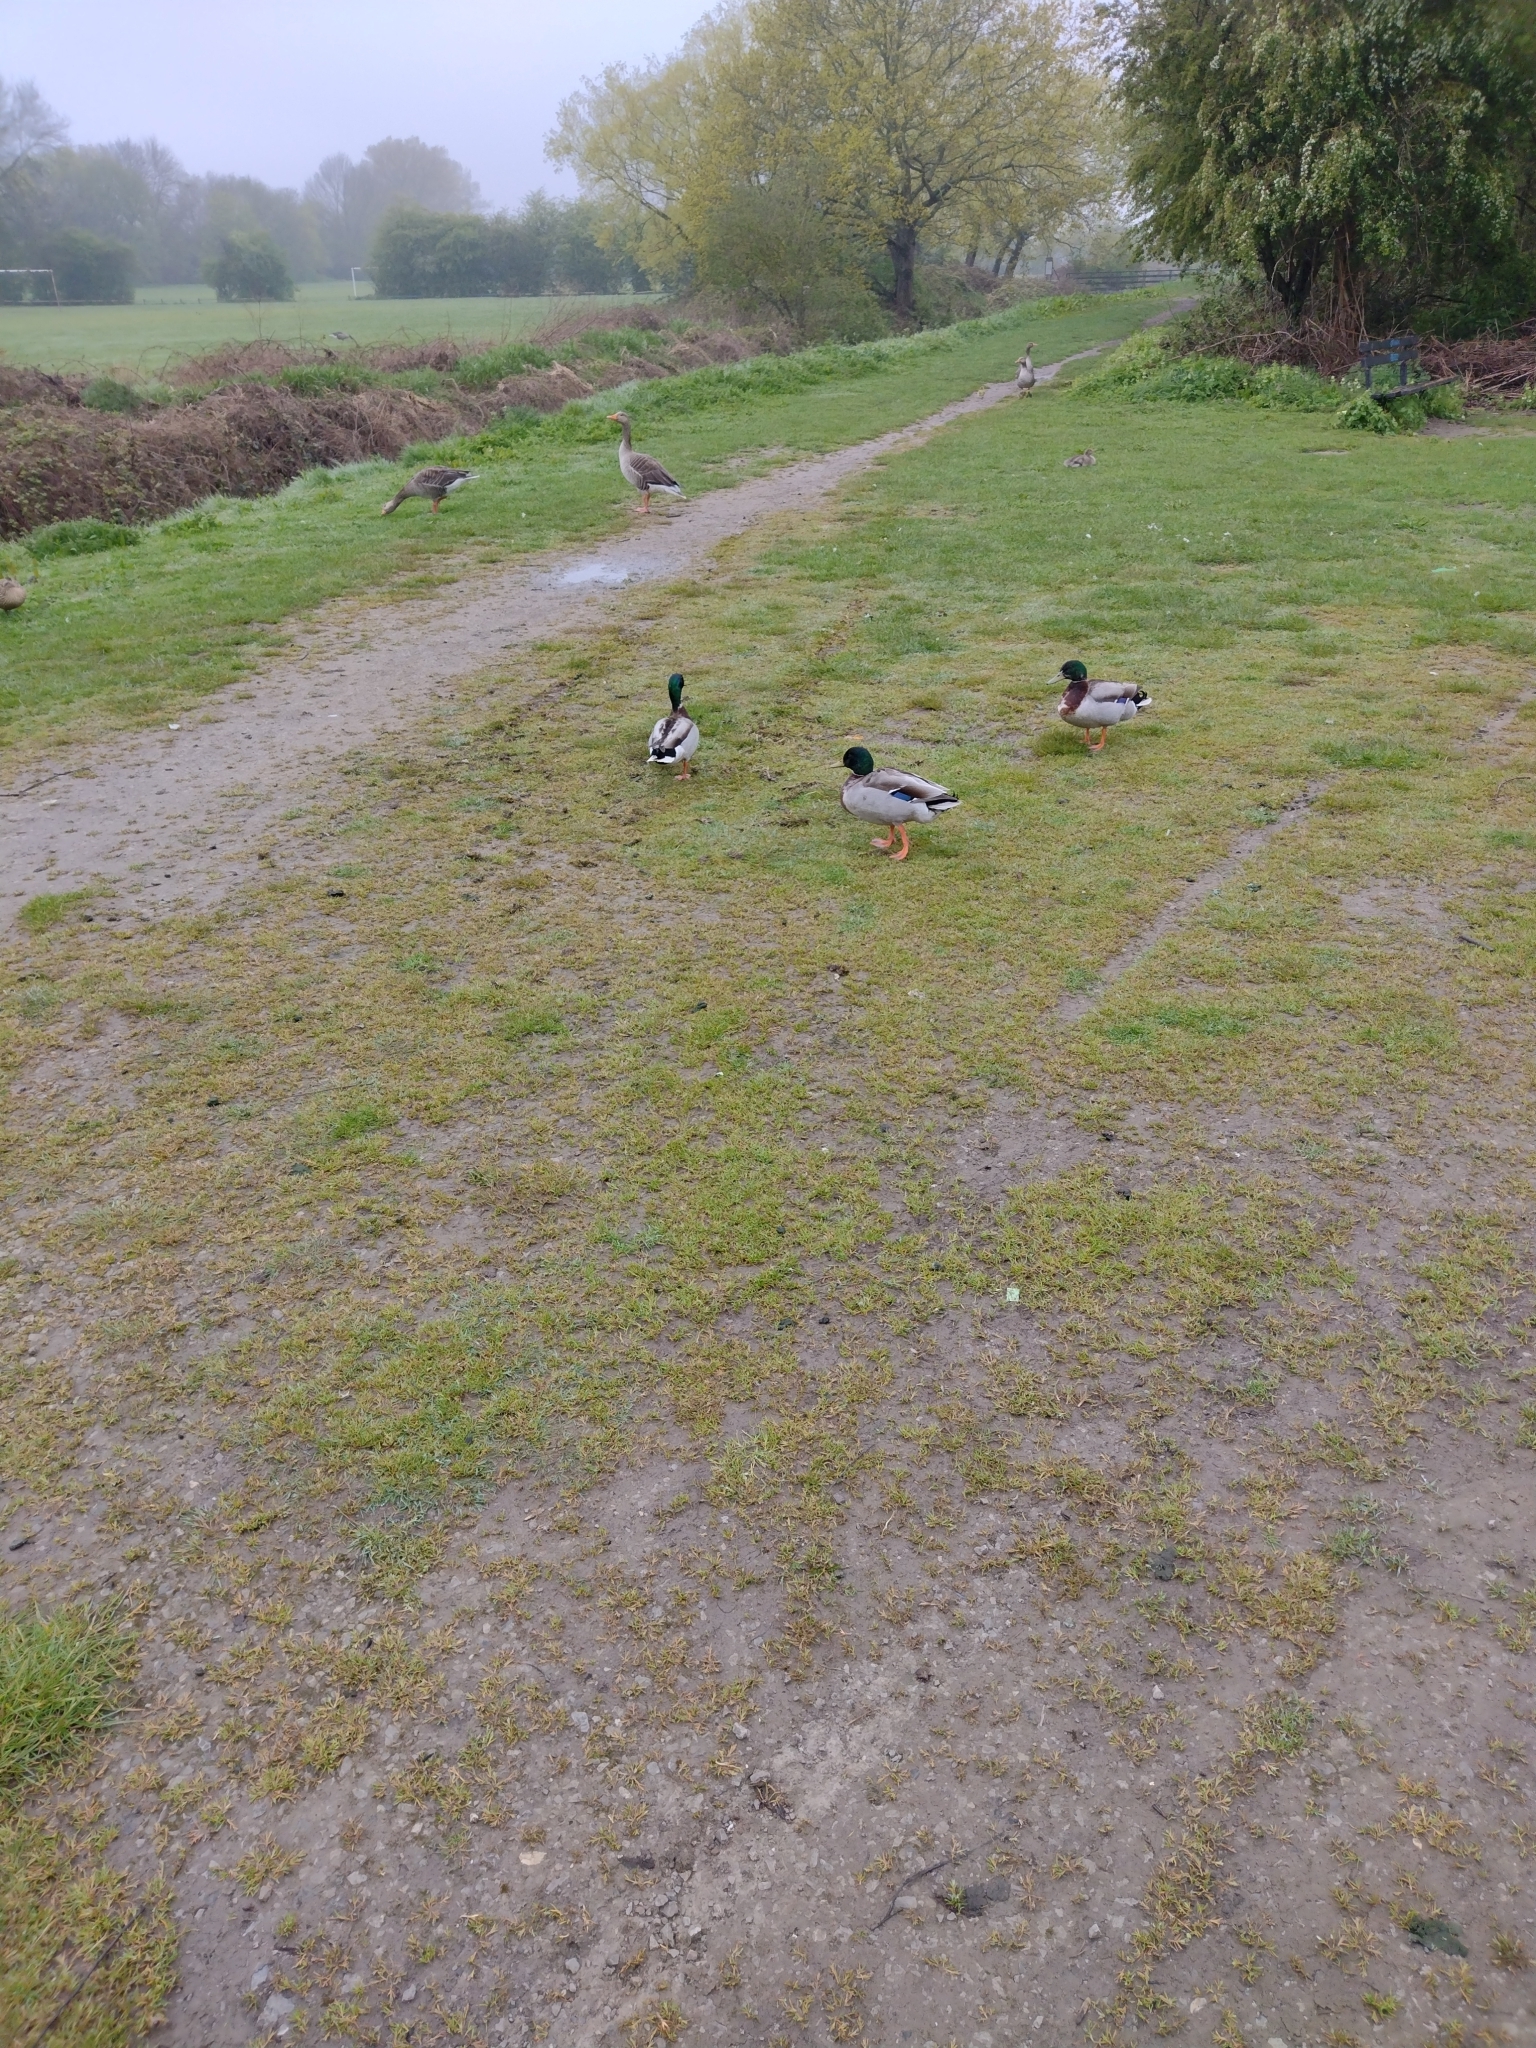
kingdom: Animalia
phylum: Chordata
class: Aves
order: Anseriformes
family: Anatidae
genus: Anas
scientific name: Anas platyrhynchos
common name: Mallard
